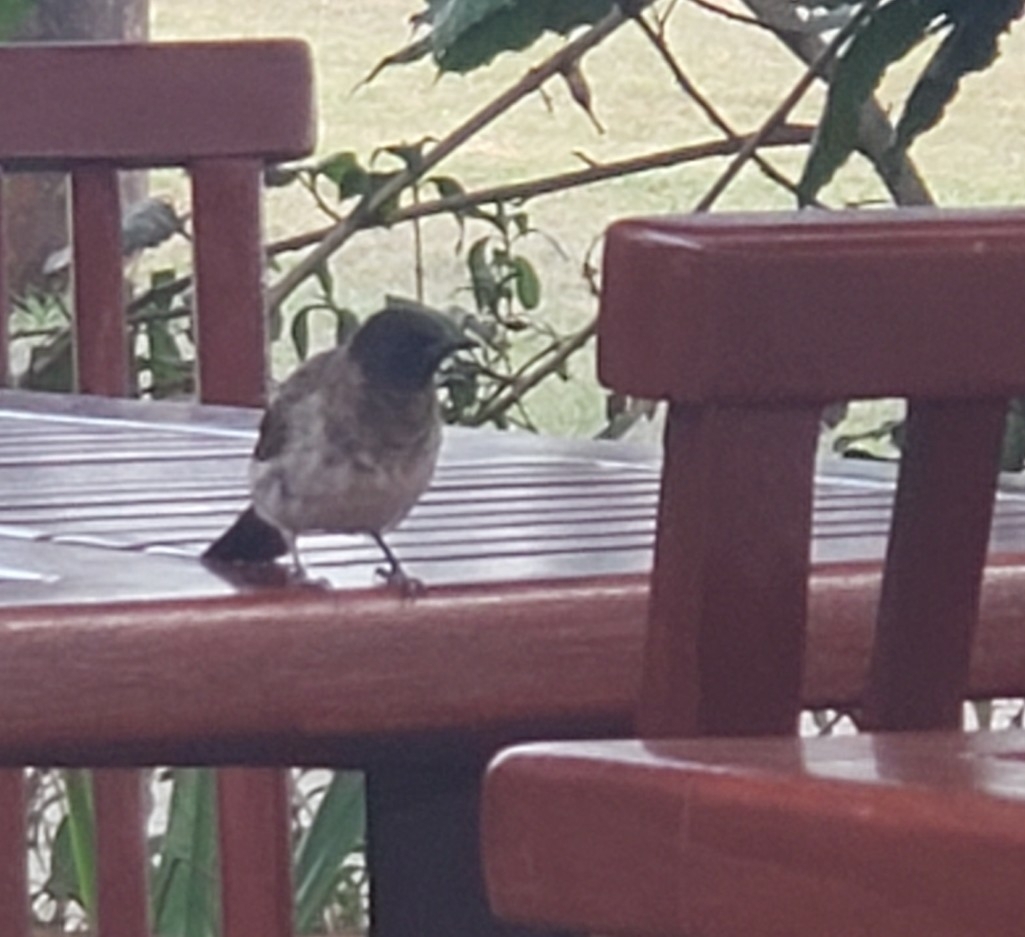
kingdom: Animalia
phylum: Chordata
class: Aves
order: Passeriformes
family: Pycnonotidae
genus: Pycnonotus
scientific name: Pycnonotus barbatus
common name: Common bulbul
